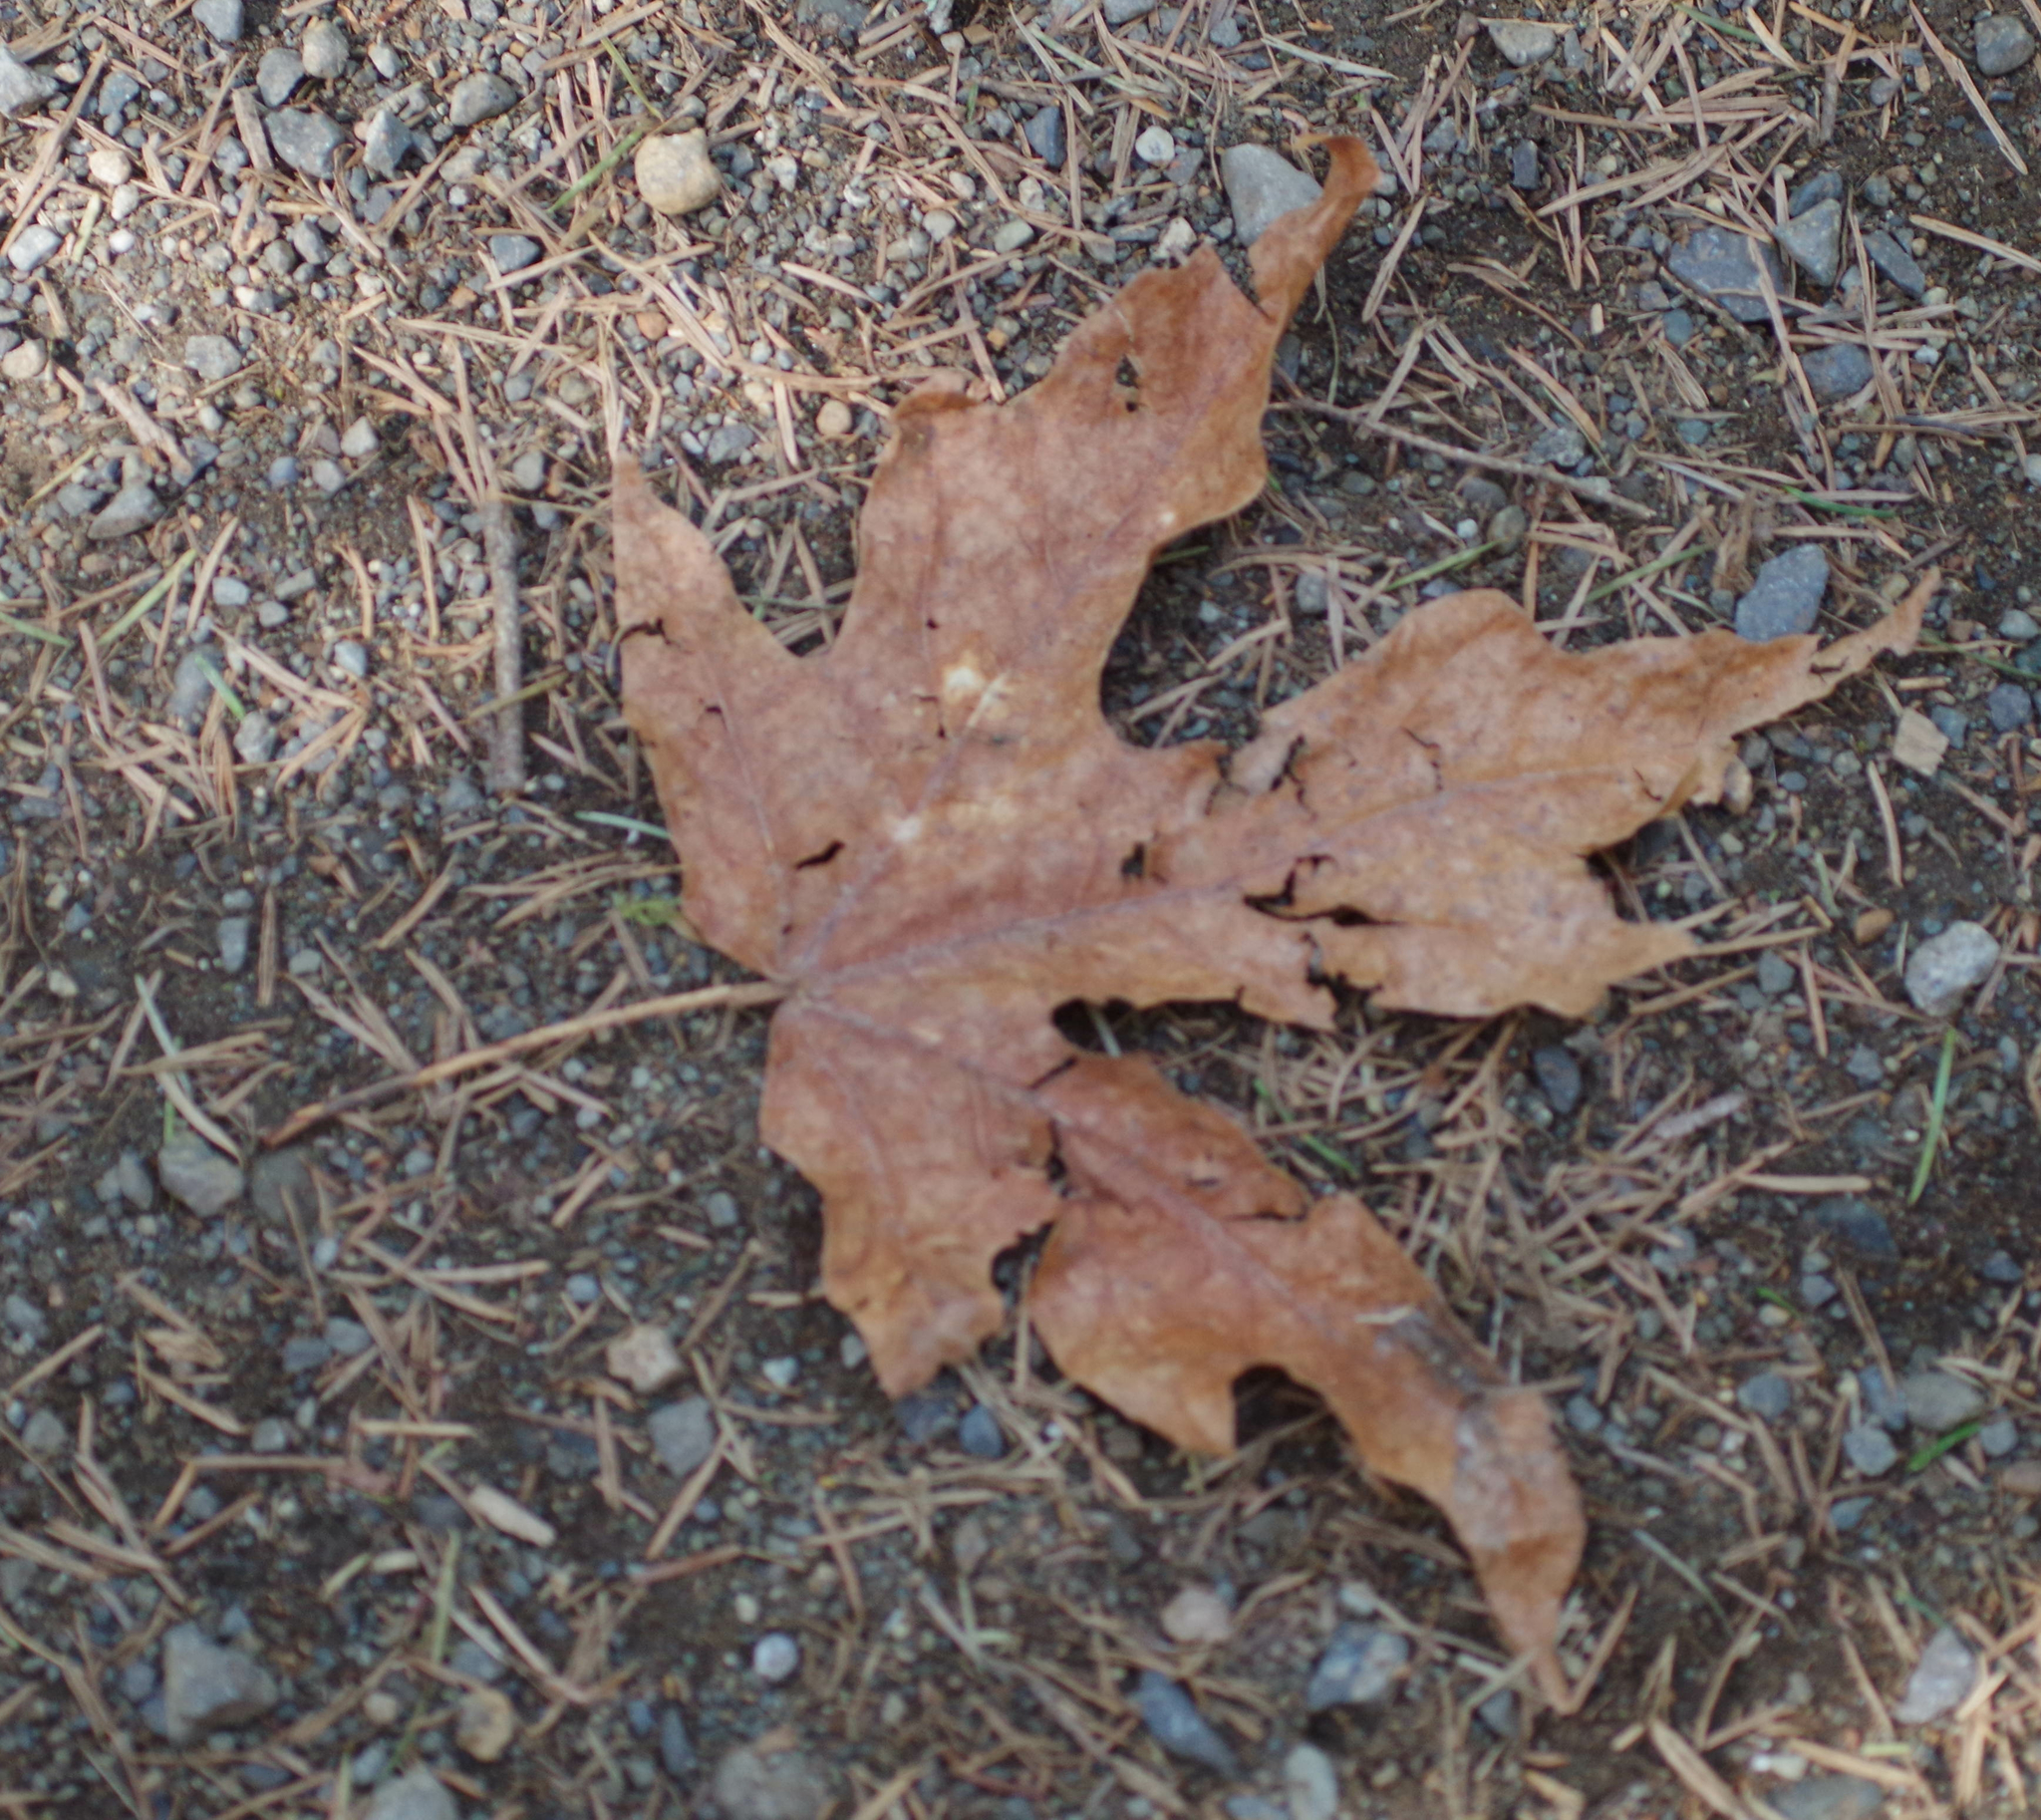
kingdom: Plantae
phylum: Tracheophyta
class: Magnoliopsida
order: Sapindales
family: Sapindaceae
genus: Acer
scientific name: Acer macrophyllum
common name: Oregon maple
